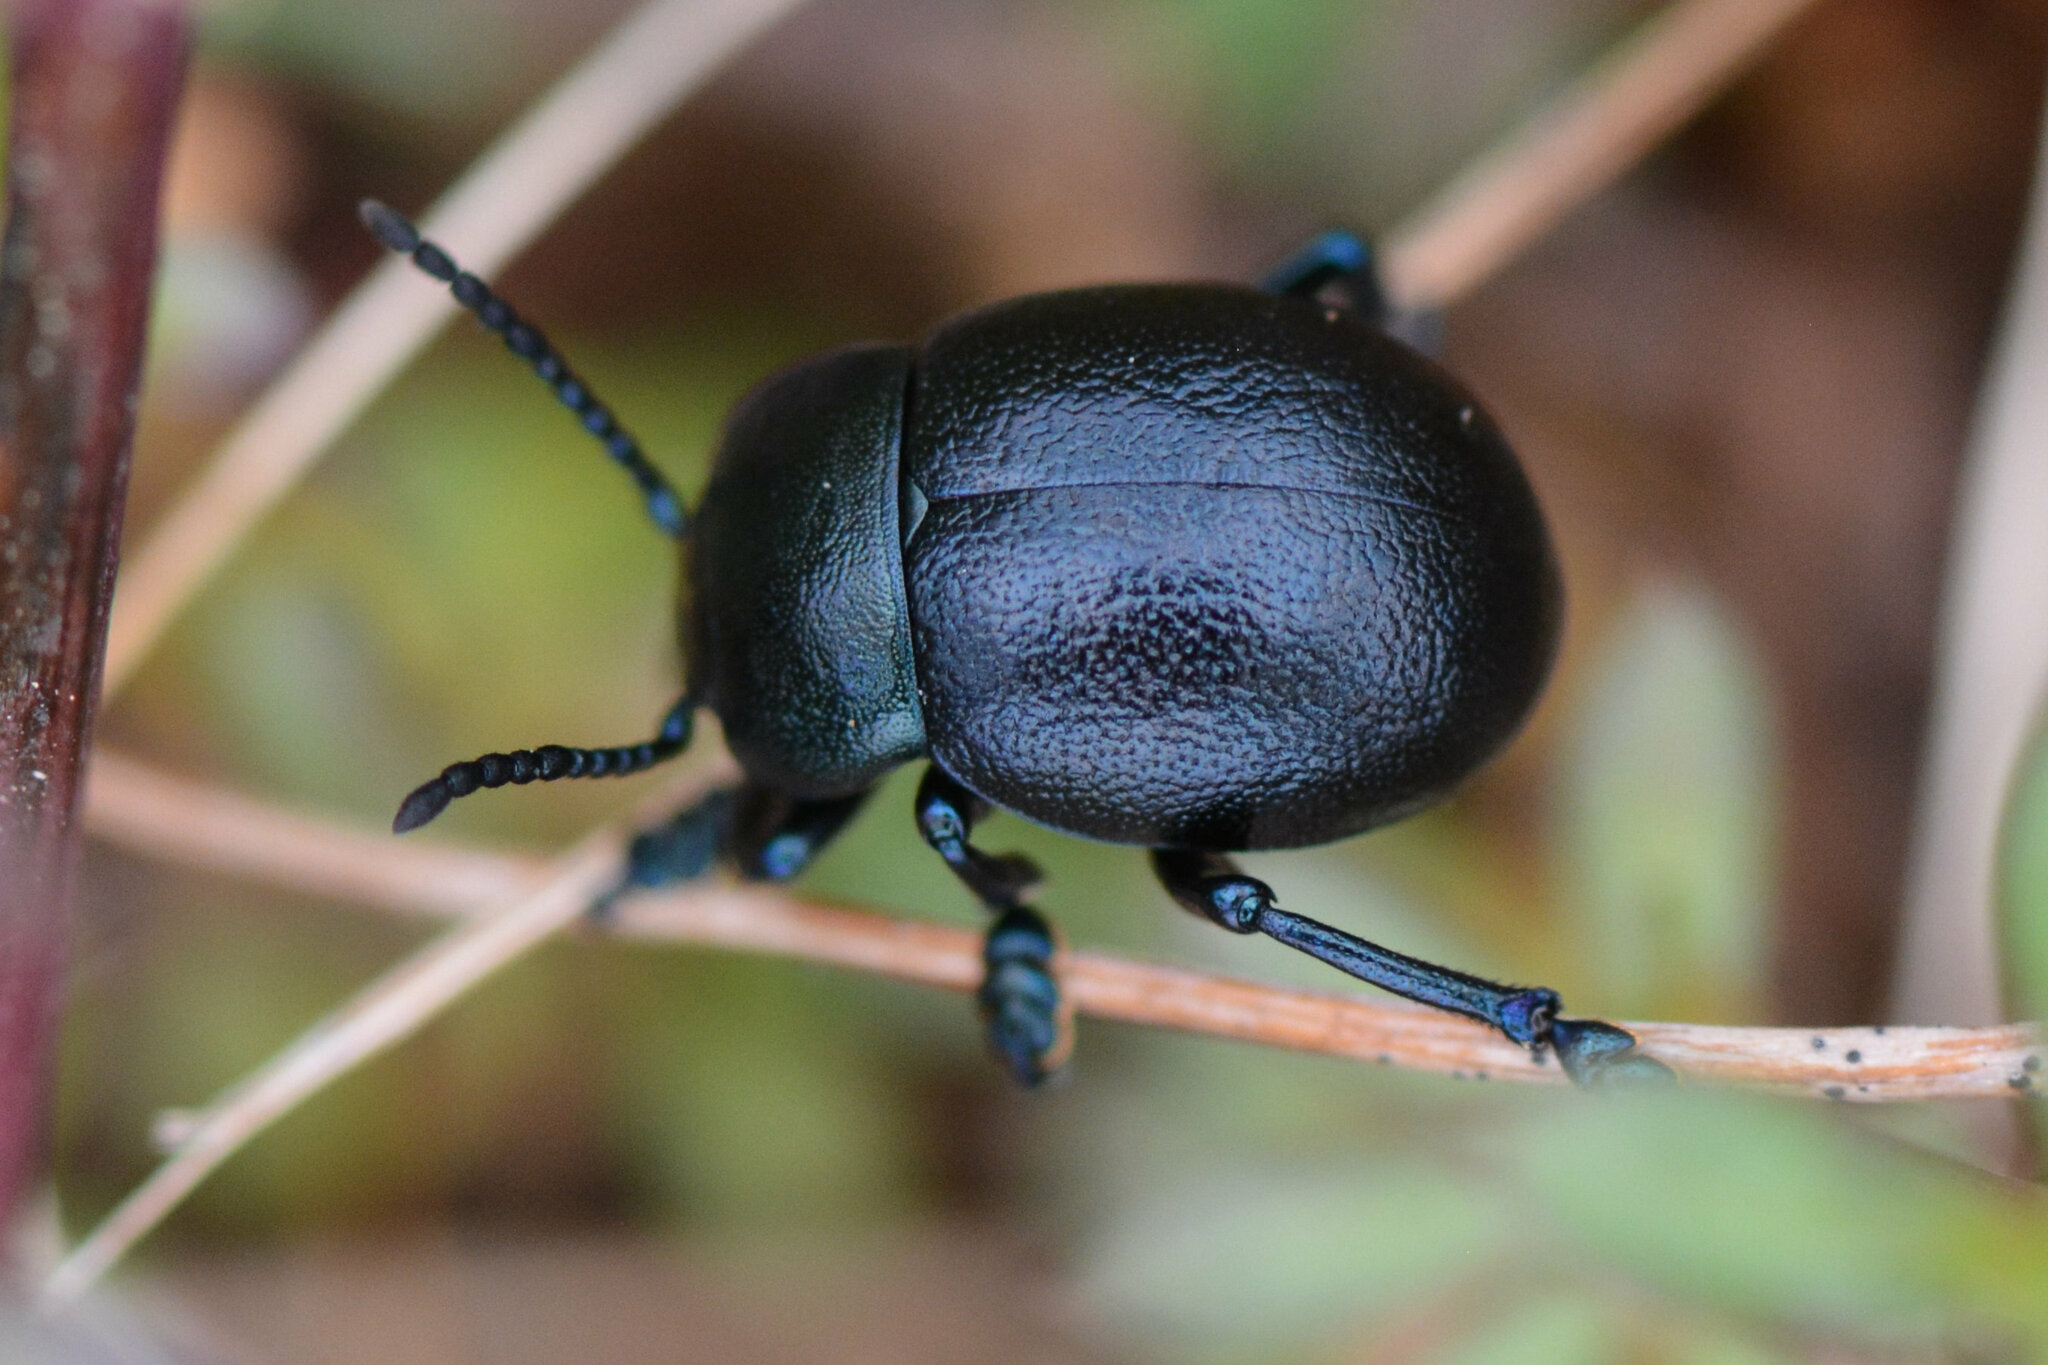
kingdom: Animalia
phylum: Arthropoda
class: Insecta
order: Coleoptera
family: Chrysomelidae
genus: Timarcha
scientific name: Timarcha goettingensis
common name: Small bloody-nosed beetle
